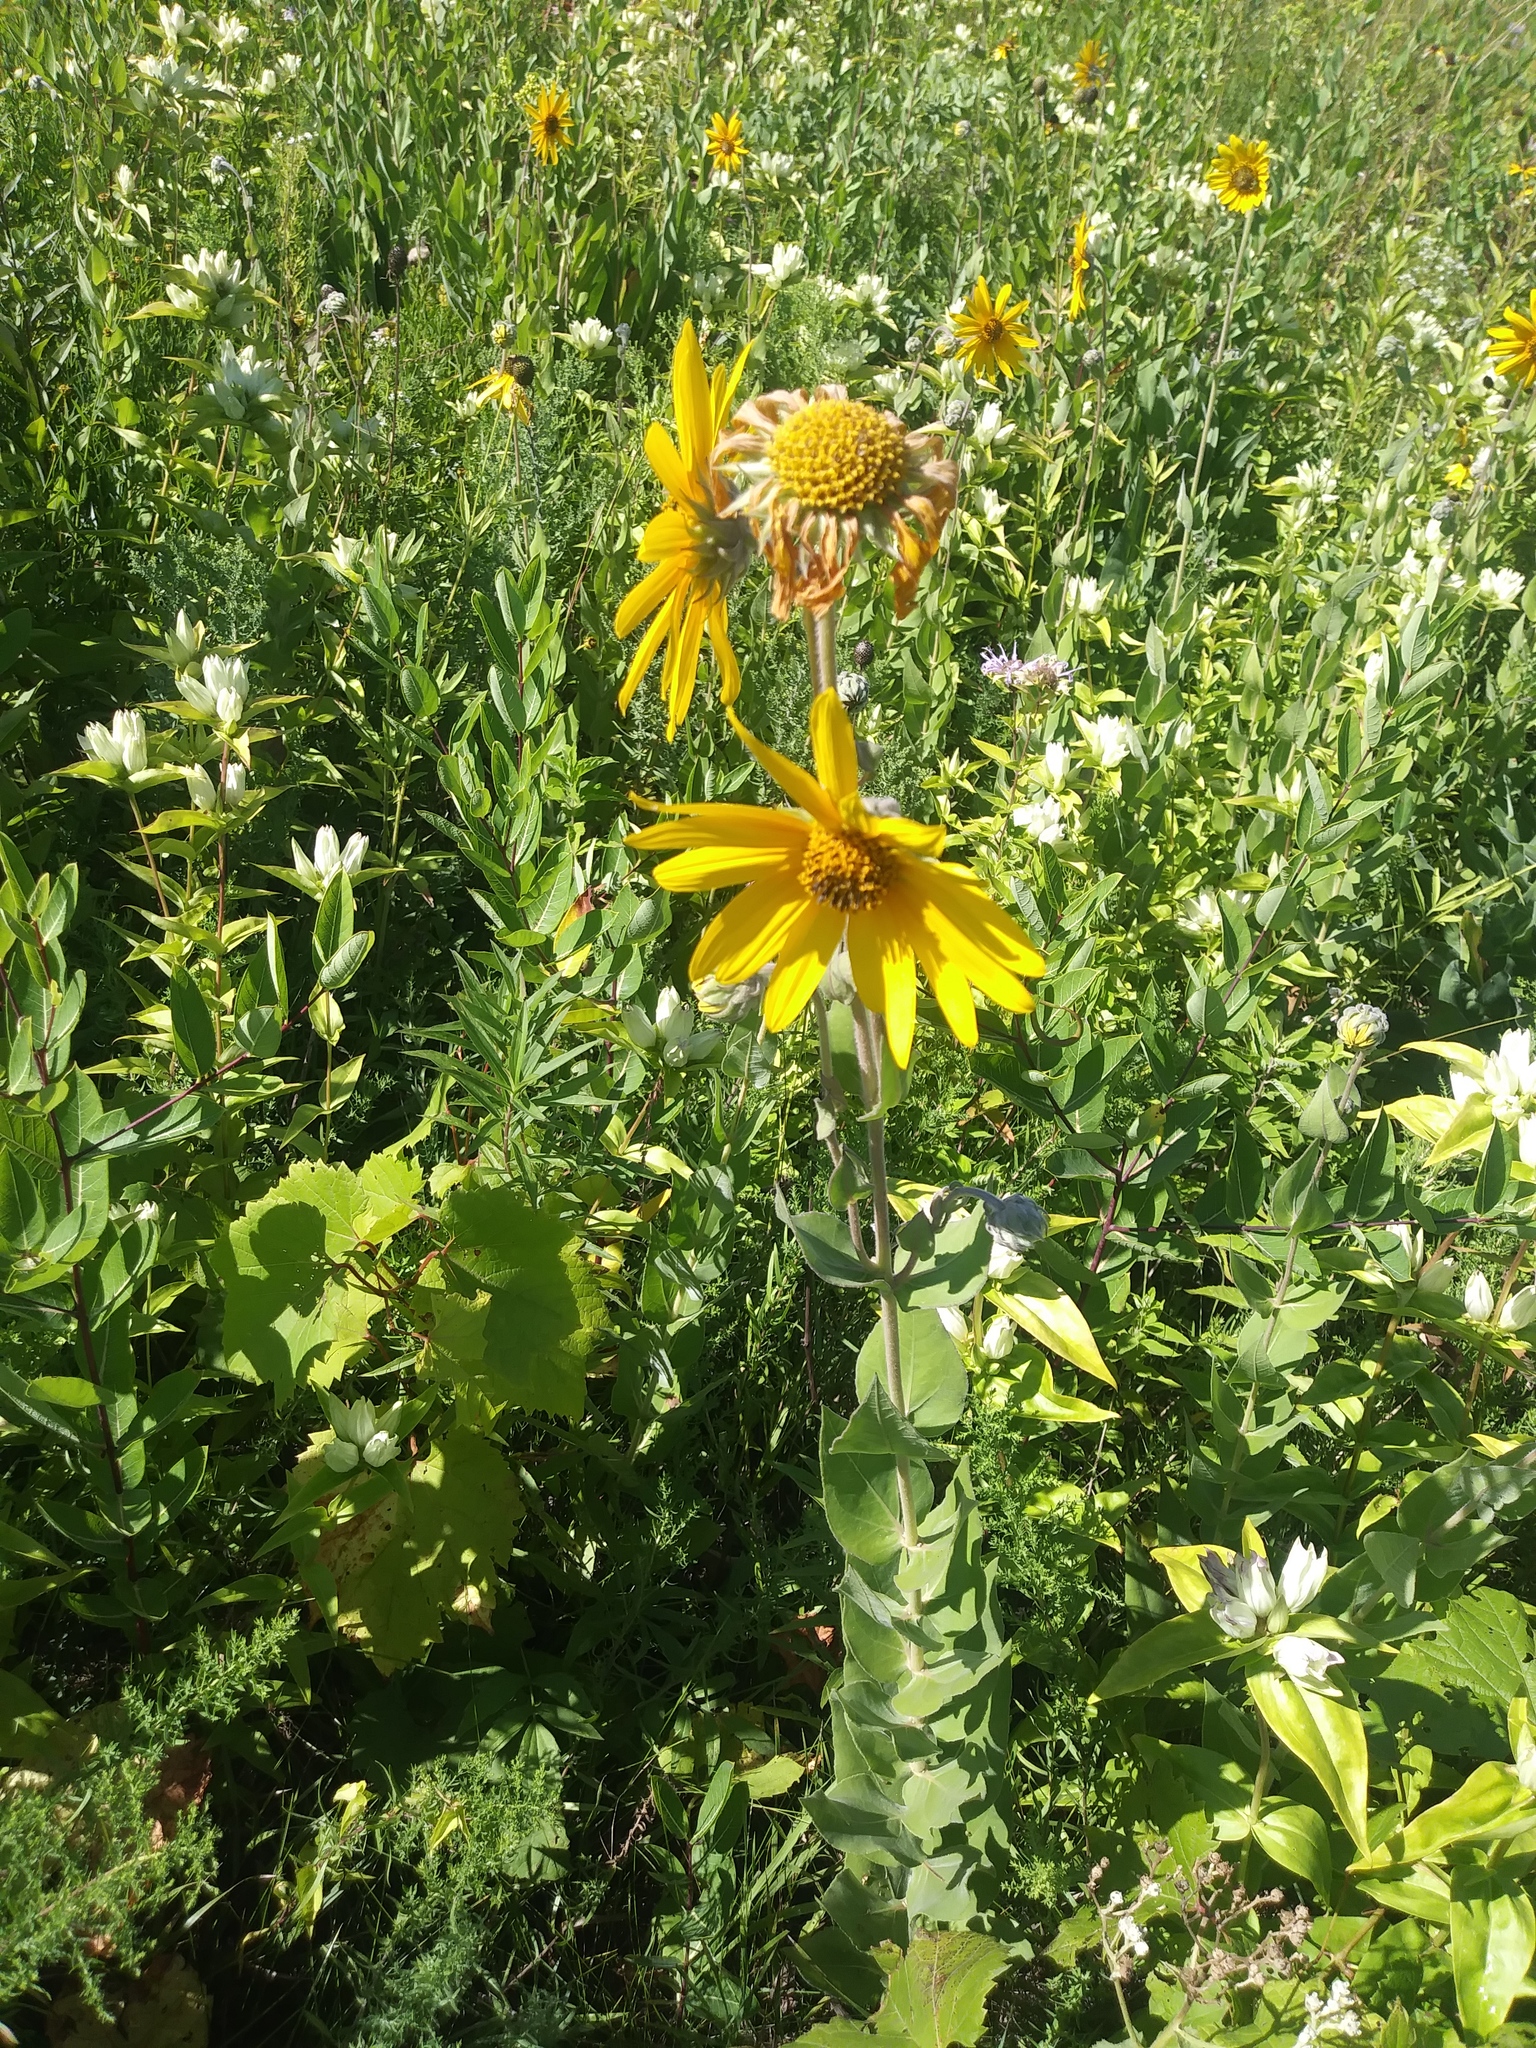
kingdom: Plantae
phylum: Tracheophyta
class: Magnoliopsida
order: Asterales
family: Asteraceae
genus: Helianthus
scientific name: Helianthus mollis
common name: Ashy sunflower
